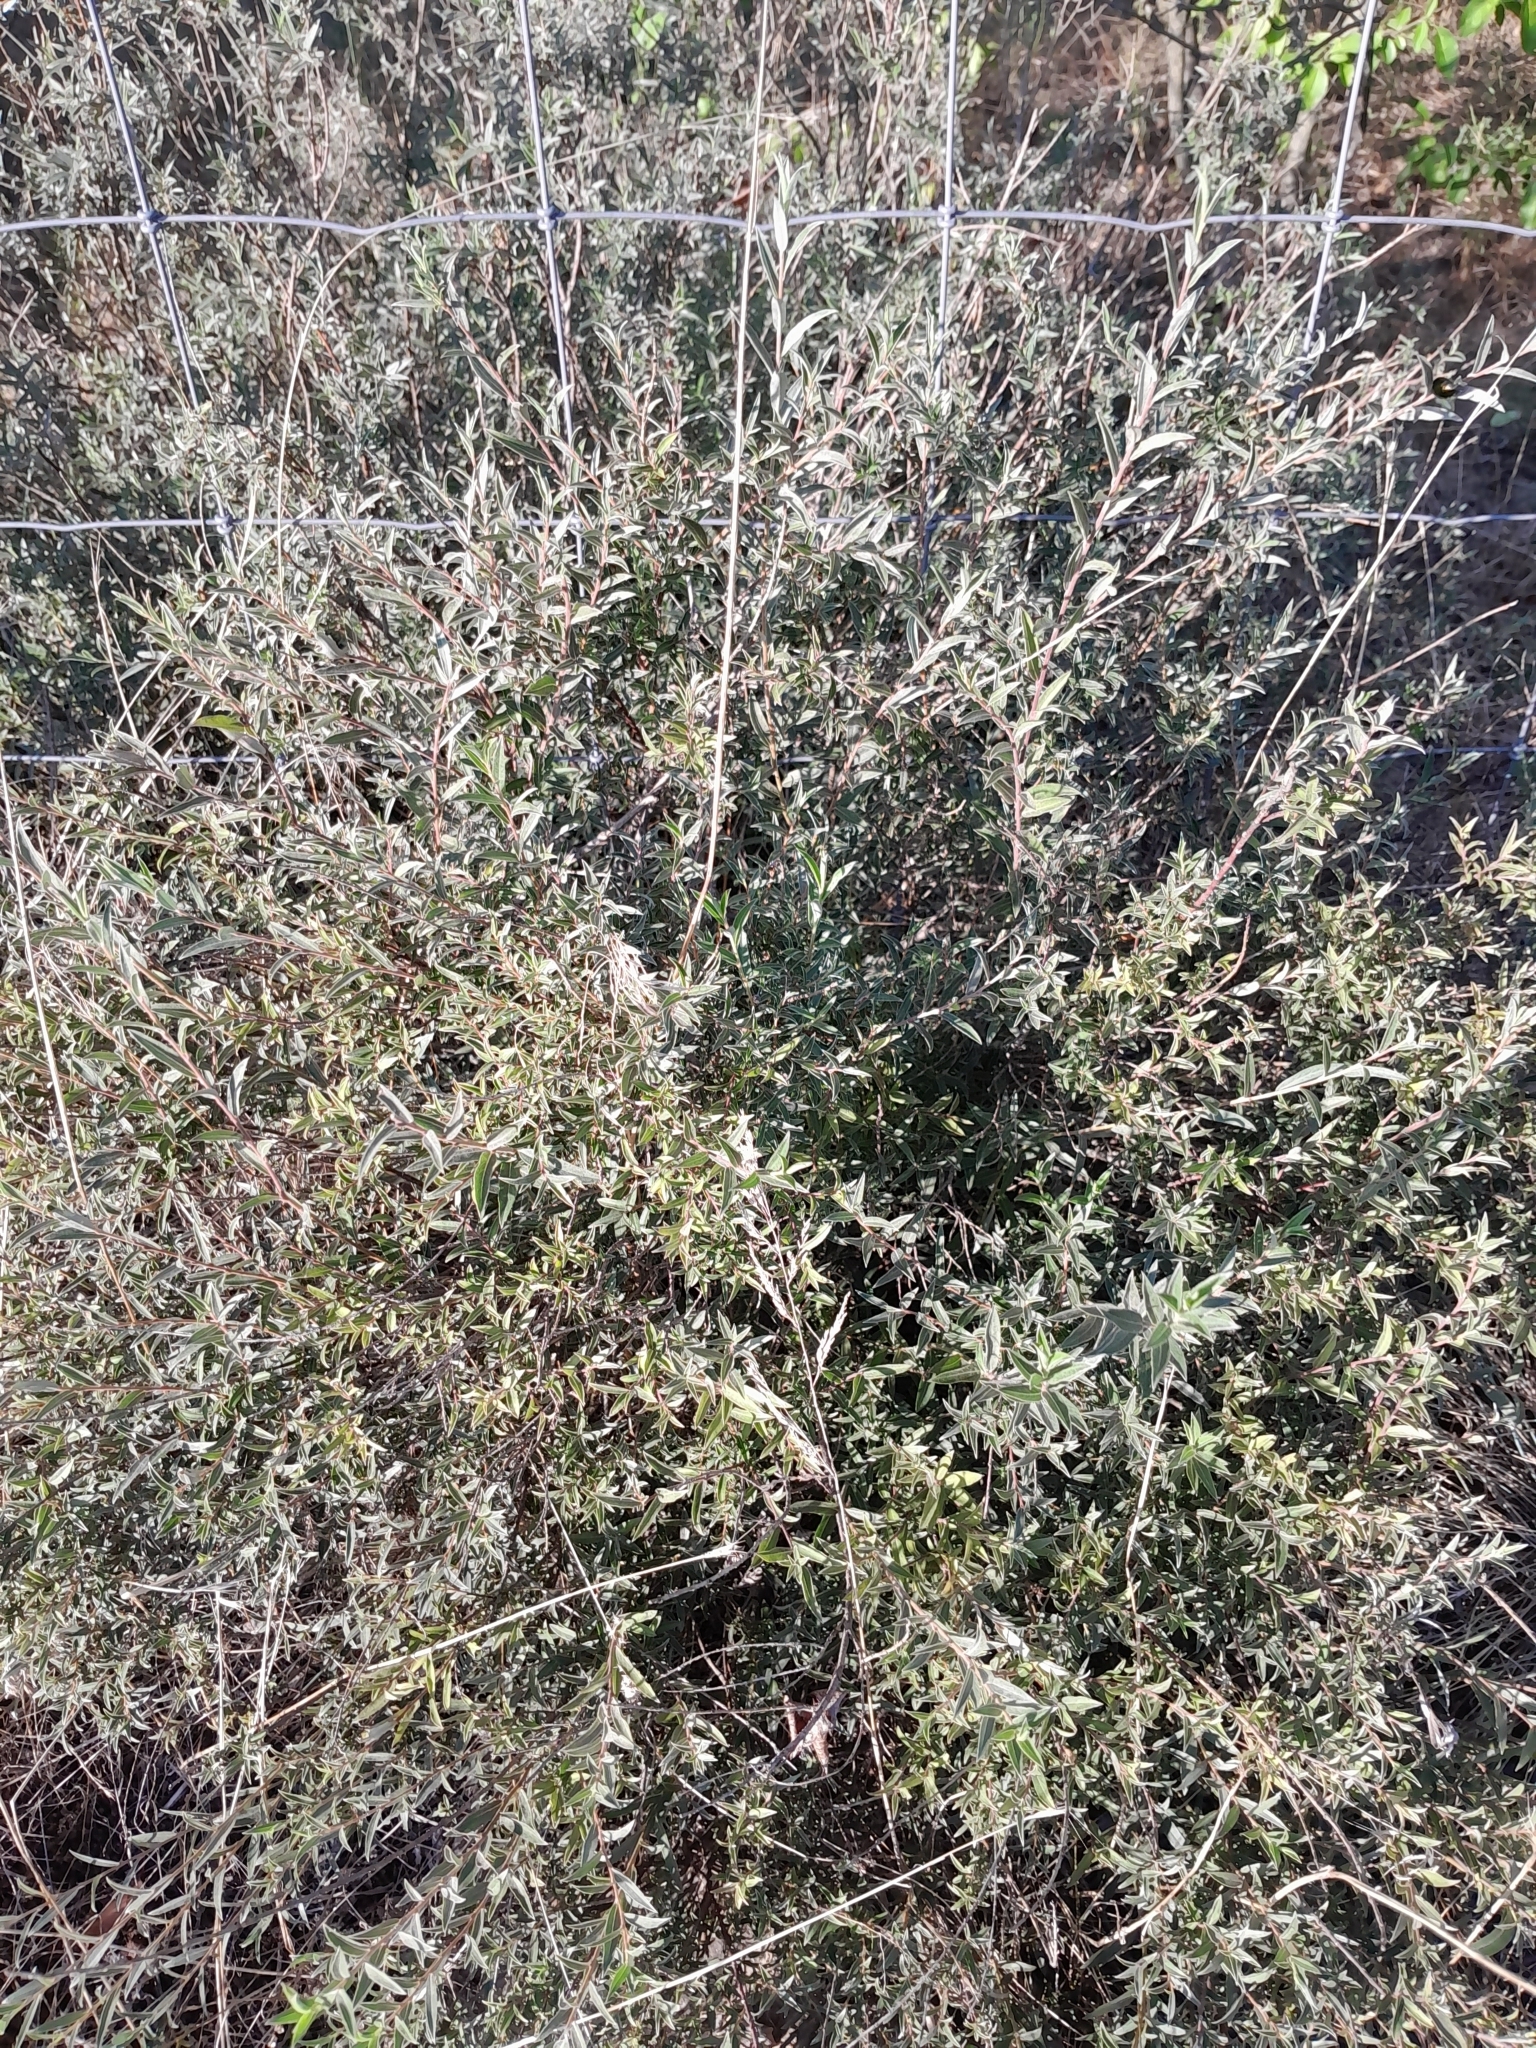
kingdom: Plantae
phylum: Tracheophyta
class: Magnoliopsida
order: Malpighiales
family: Salicaceae
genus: Salix
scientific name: Salix rosmarinifolia
